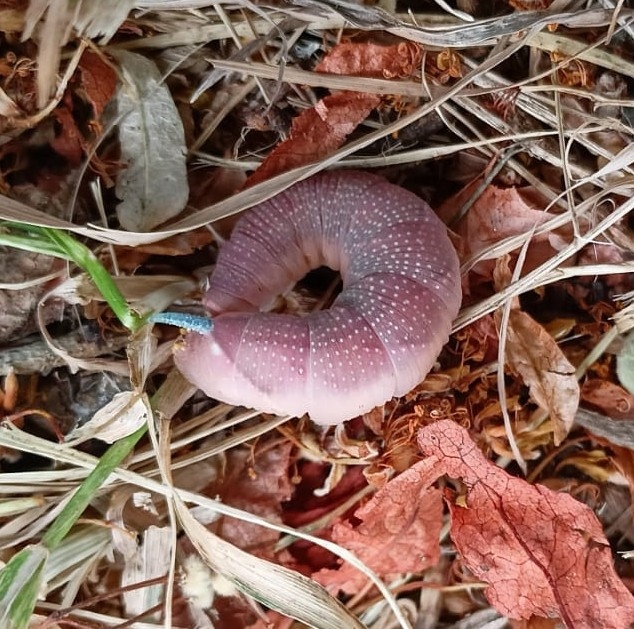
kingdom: Animalia
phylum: Arthropoda
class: Insecta
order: Lepidoptera
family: Sphingidae
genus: Mimas
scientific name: Mimas tiliae
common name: Lime hawk-moth
